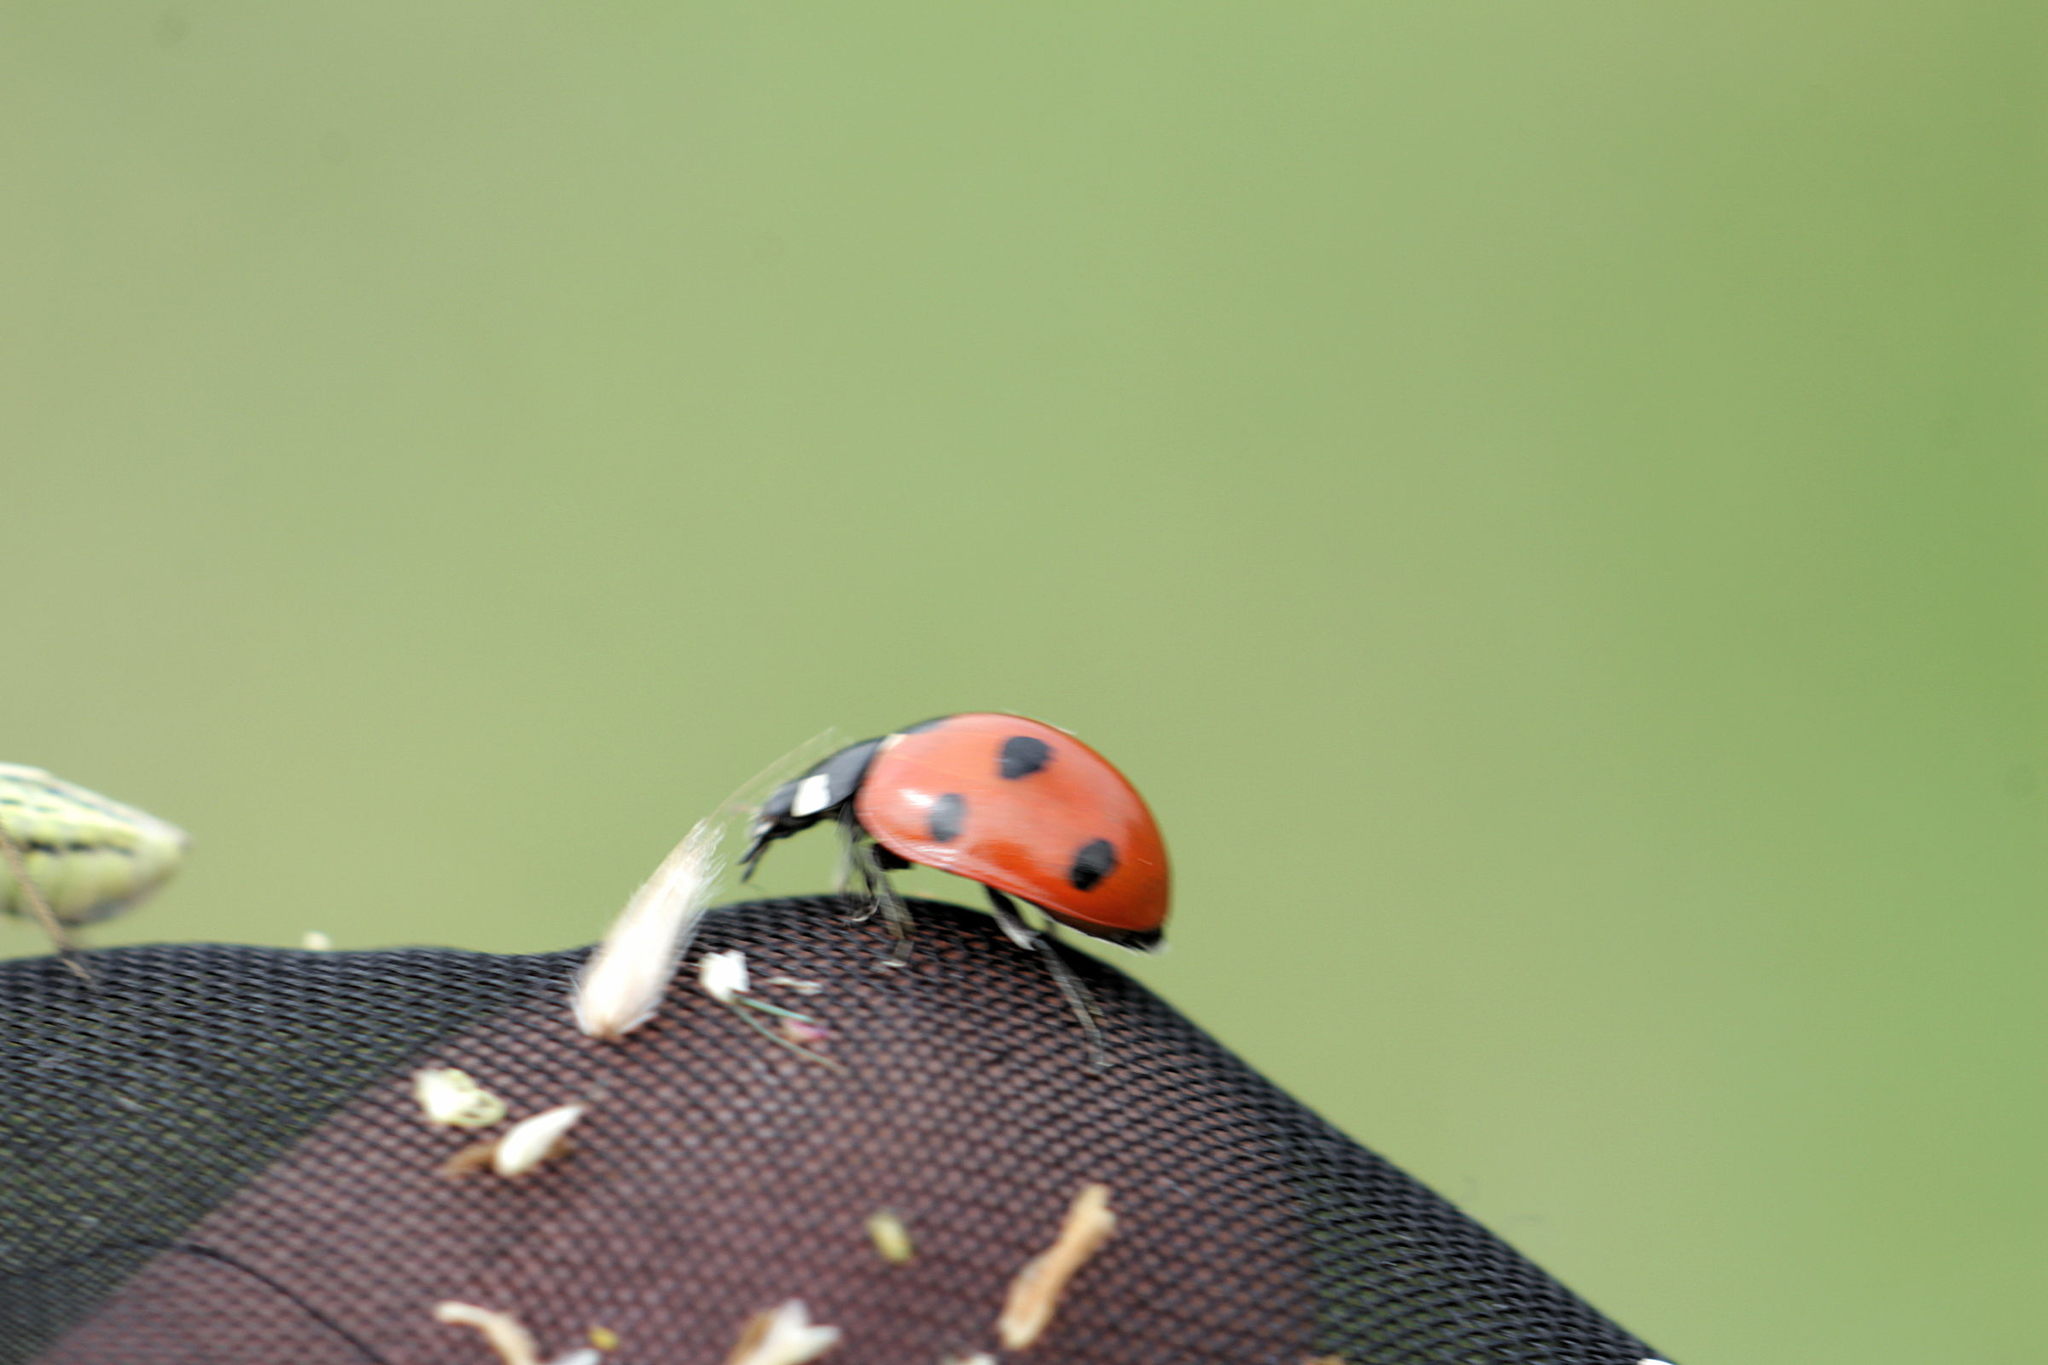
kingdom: Animalia
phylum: Arthropoda
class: Insecta
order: Coleoptera
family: Coccinellidae
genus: Coccinella
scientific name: Coccinella septempunctata
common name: Sevenspotted lady beetle
